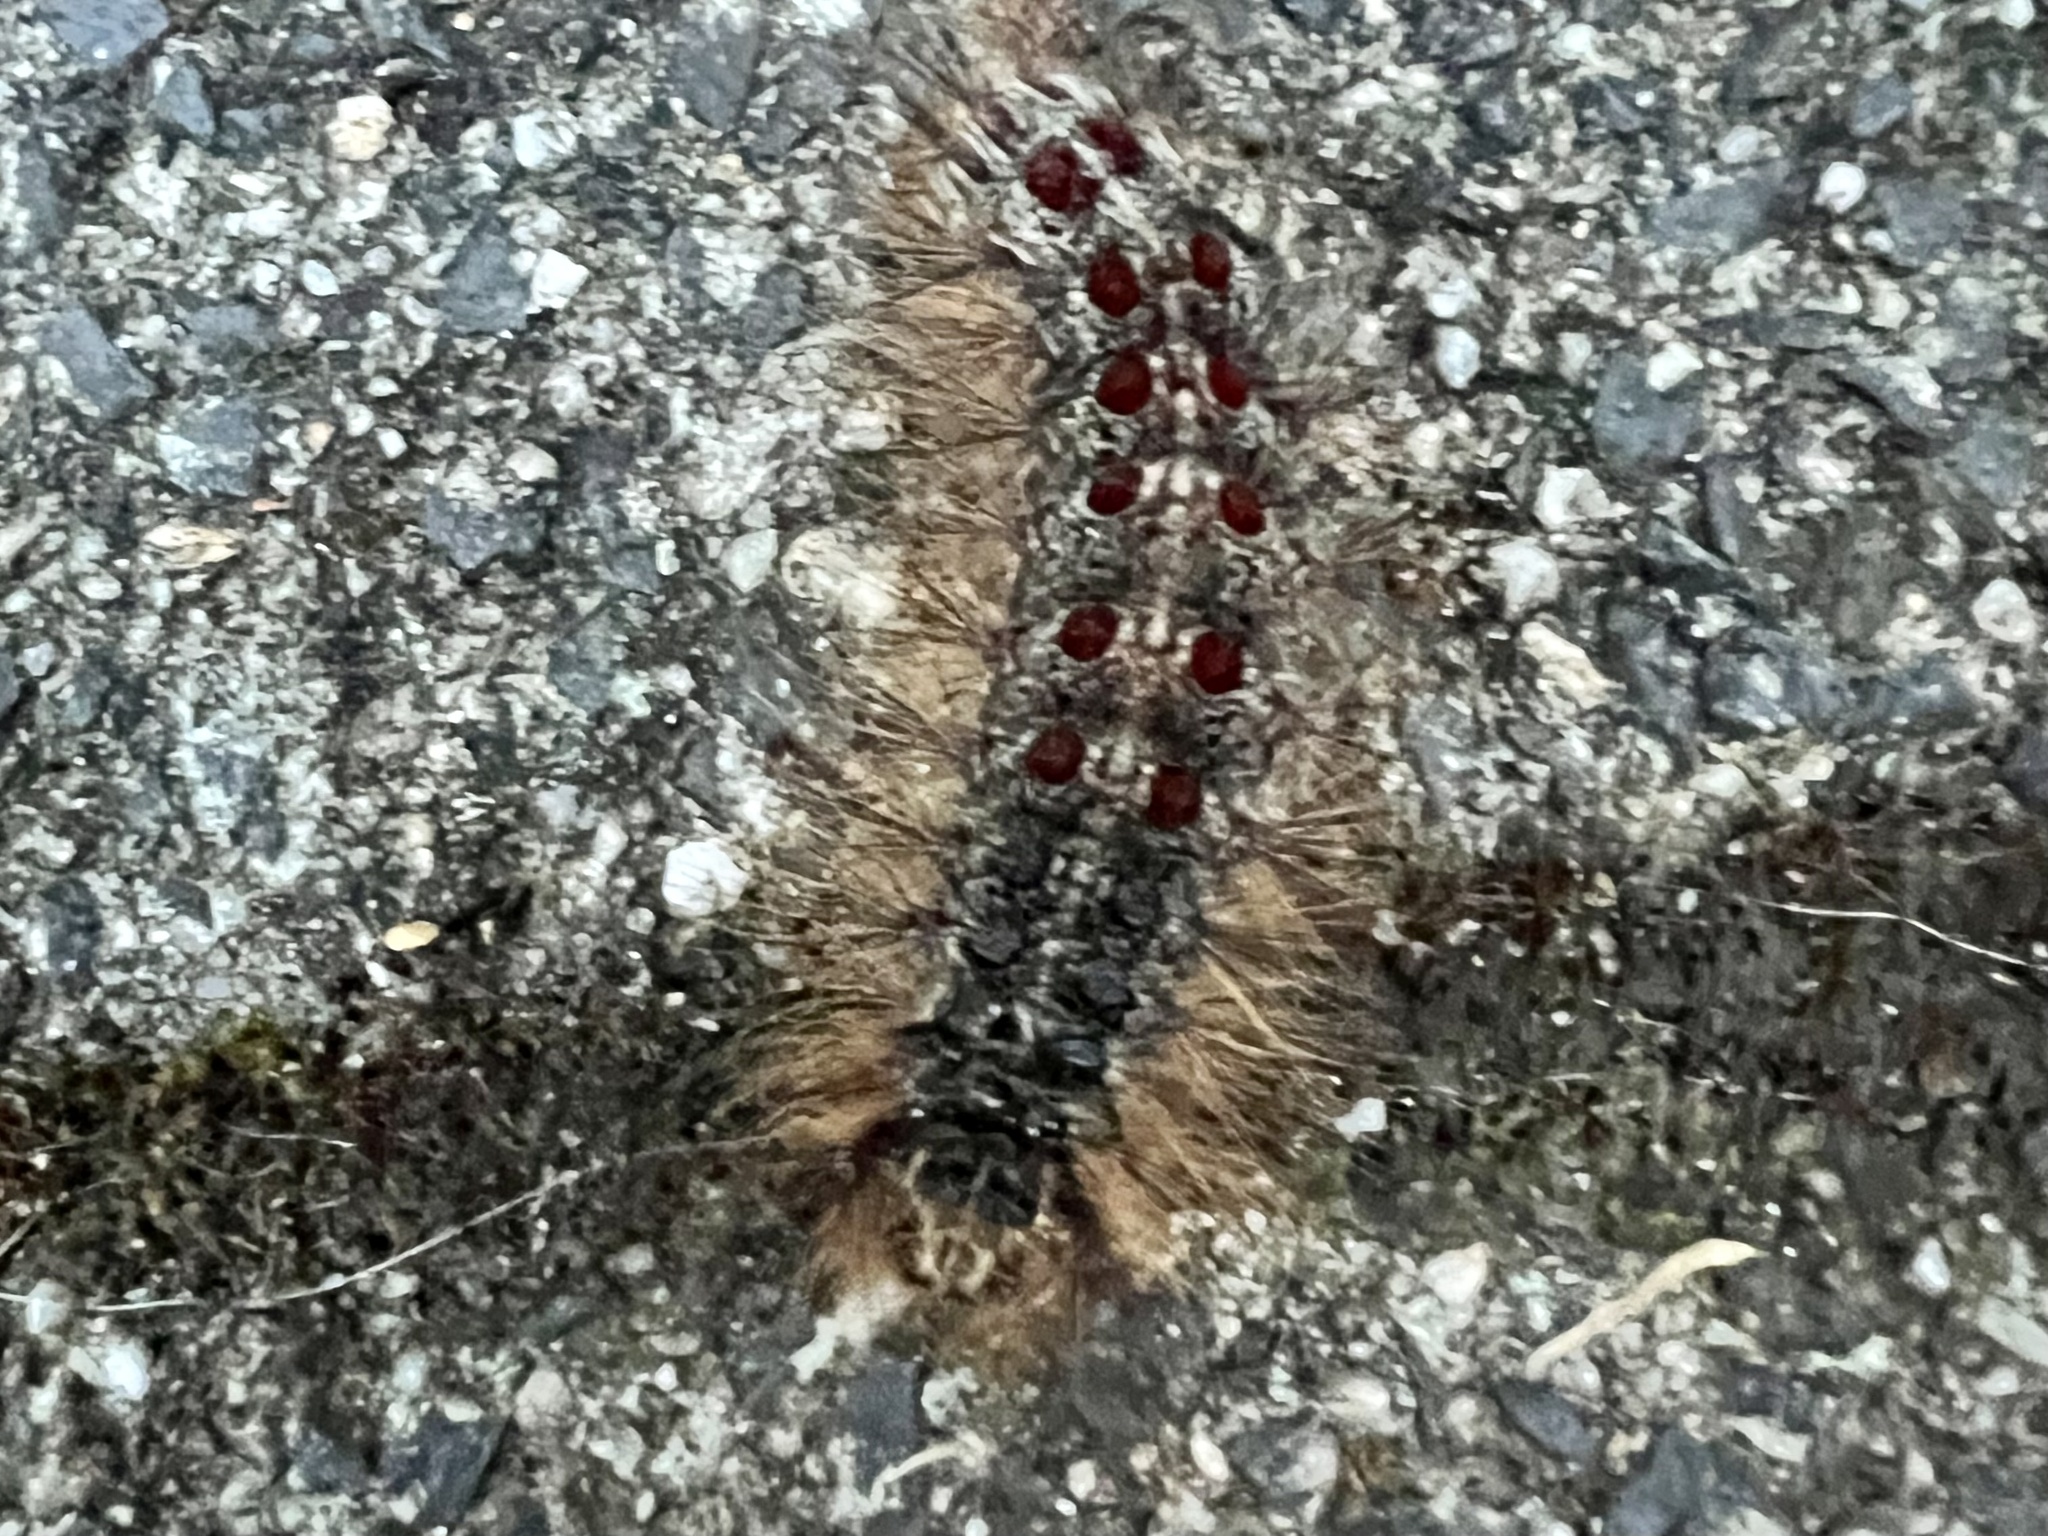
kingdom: Animalia
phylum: Arthropoda
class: Insecta
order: Lepidoptera
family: Erebidae
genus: Lymantria
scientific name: Lymantria dispar
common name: Gypsy moth
